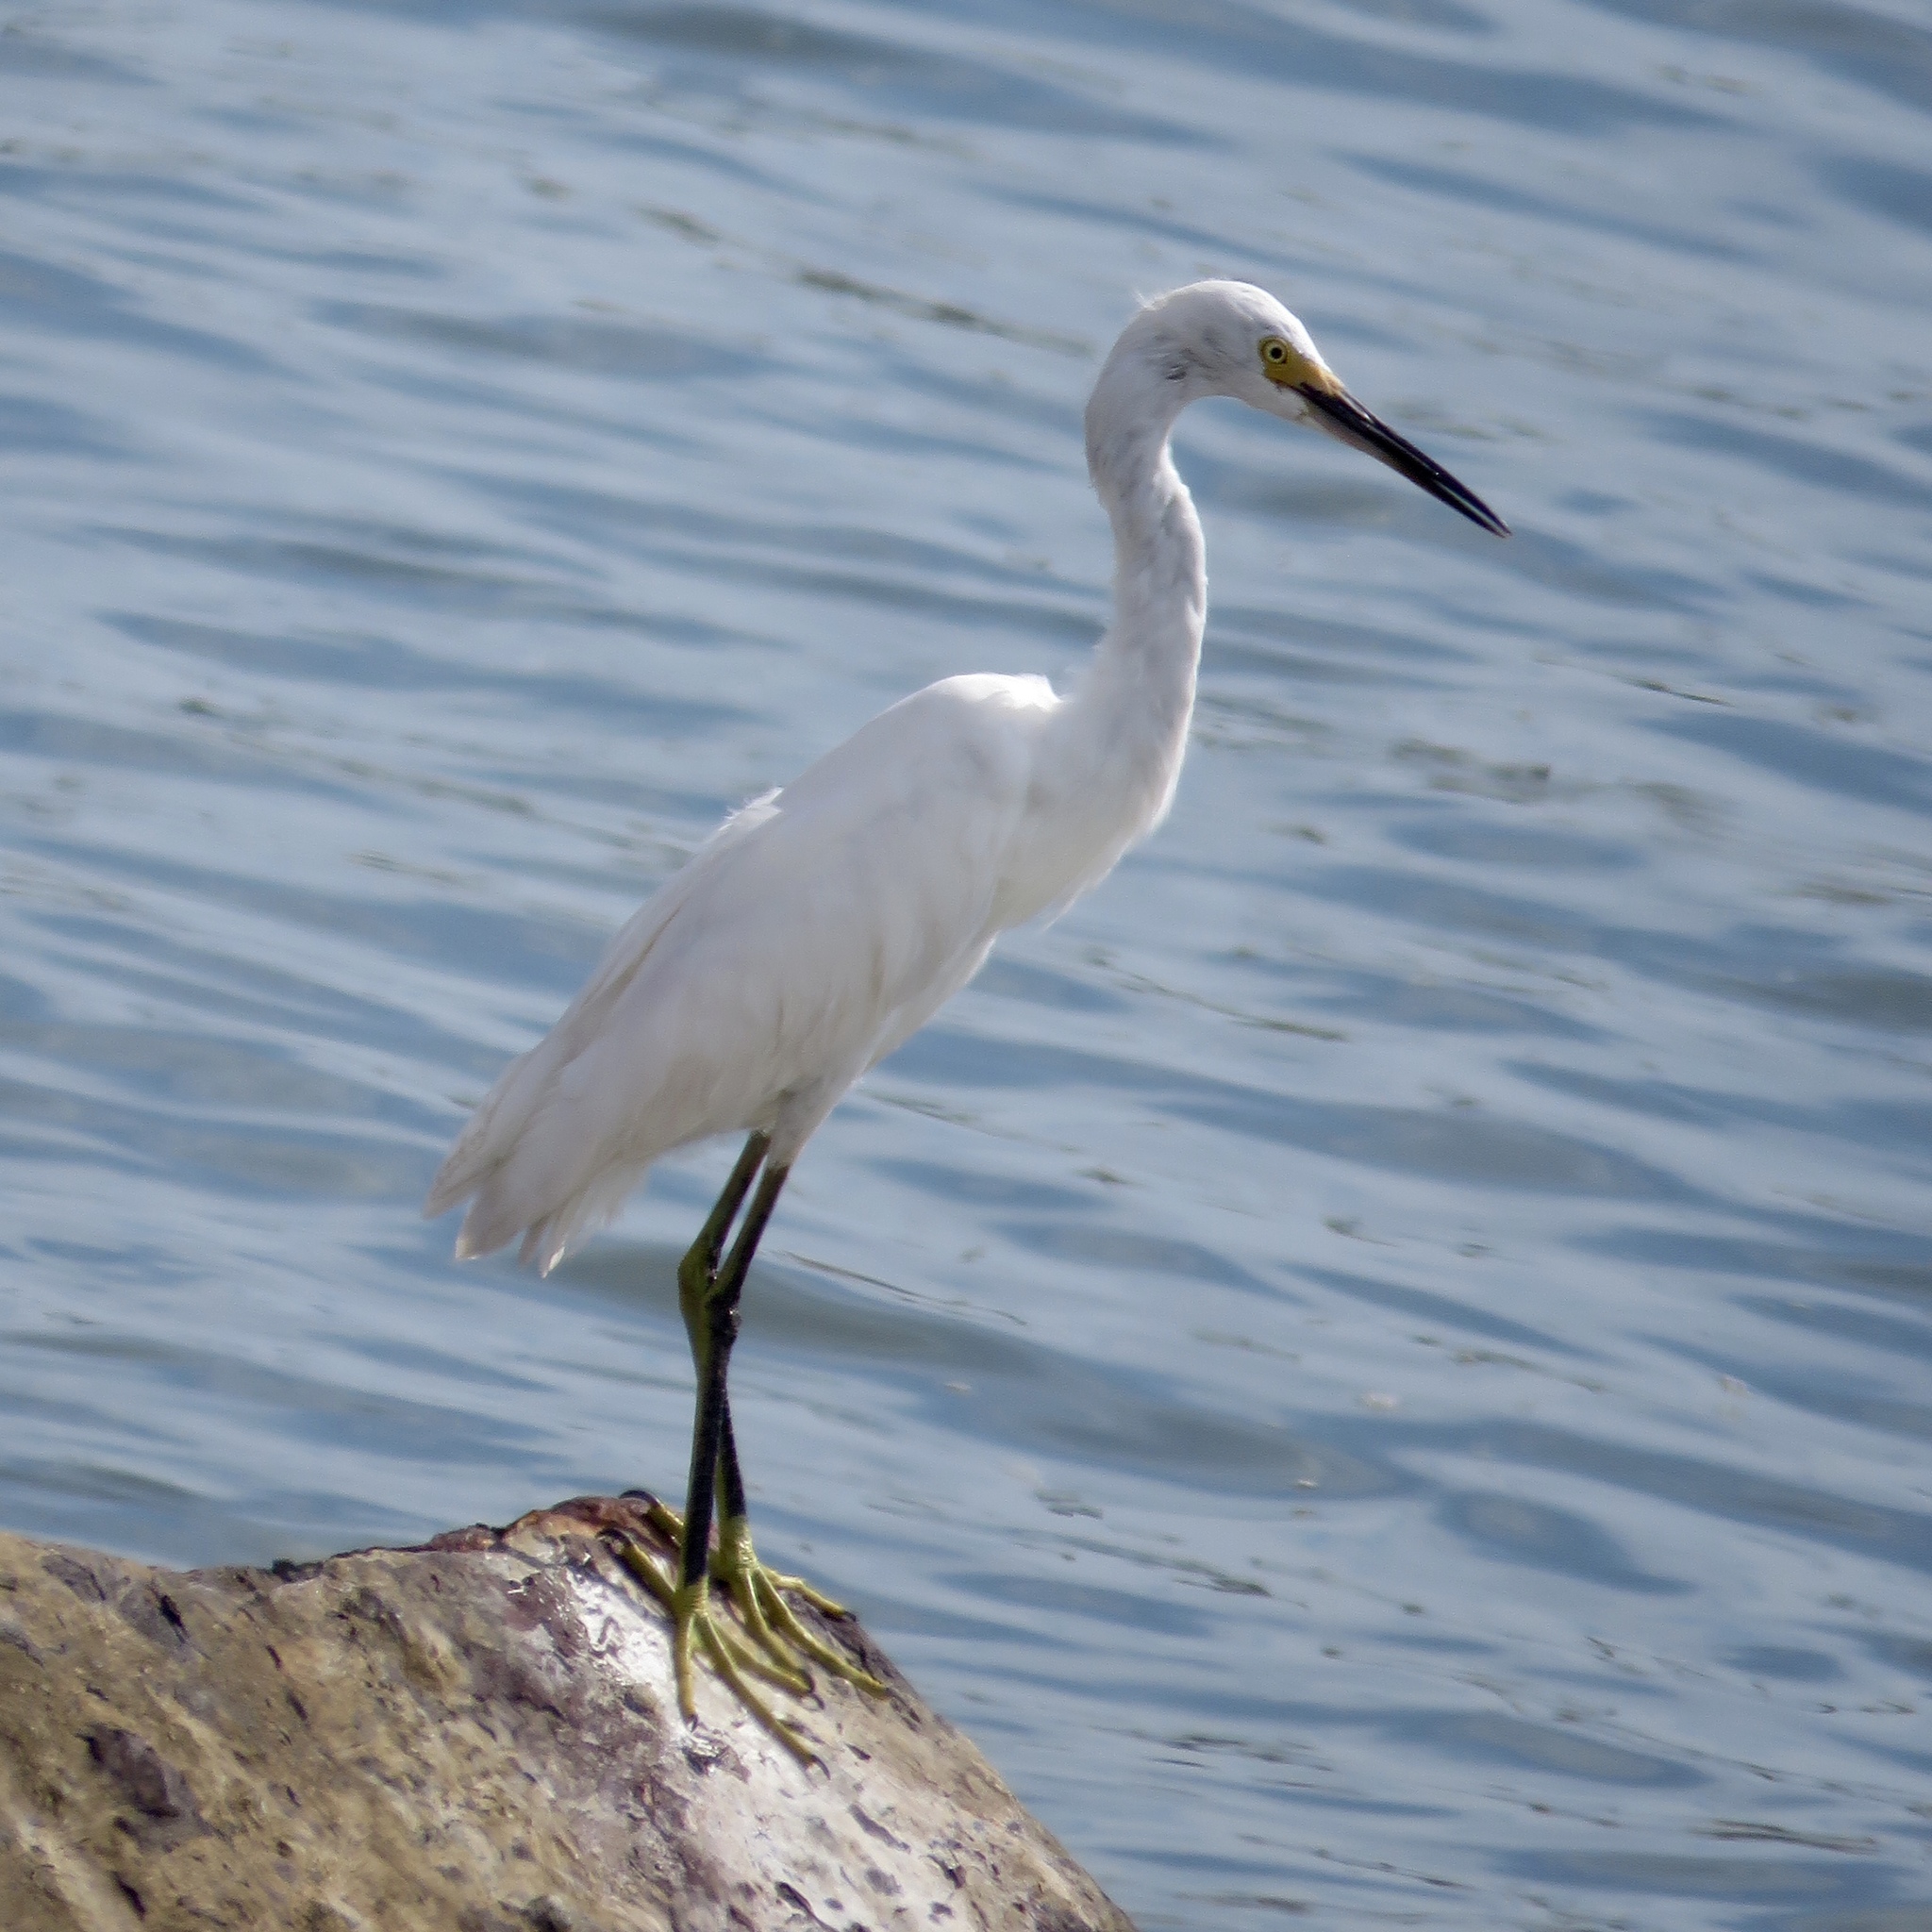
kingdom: Animalia
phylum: Chordata
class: Aves
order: Pelecaniformes
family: Ardeidae
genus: Egretta
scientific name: Egretta thula
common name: Snowy egret
